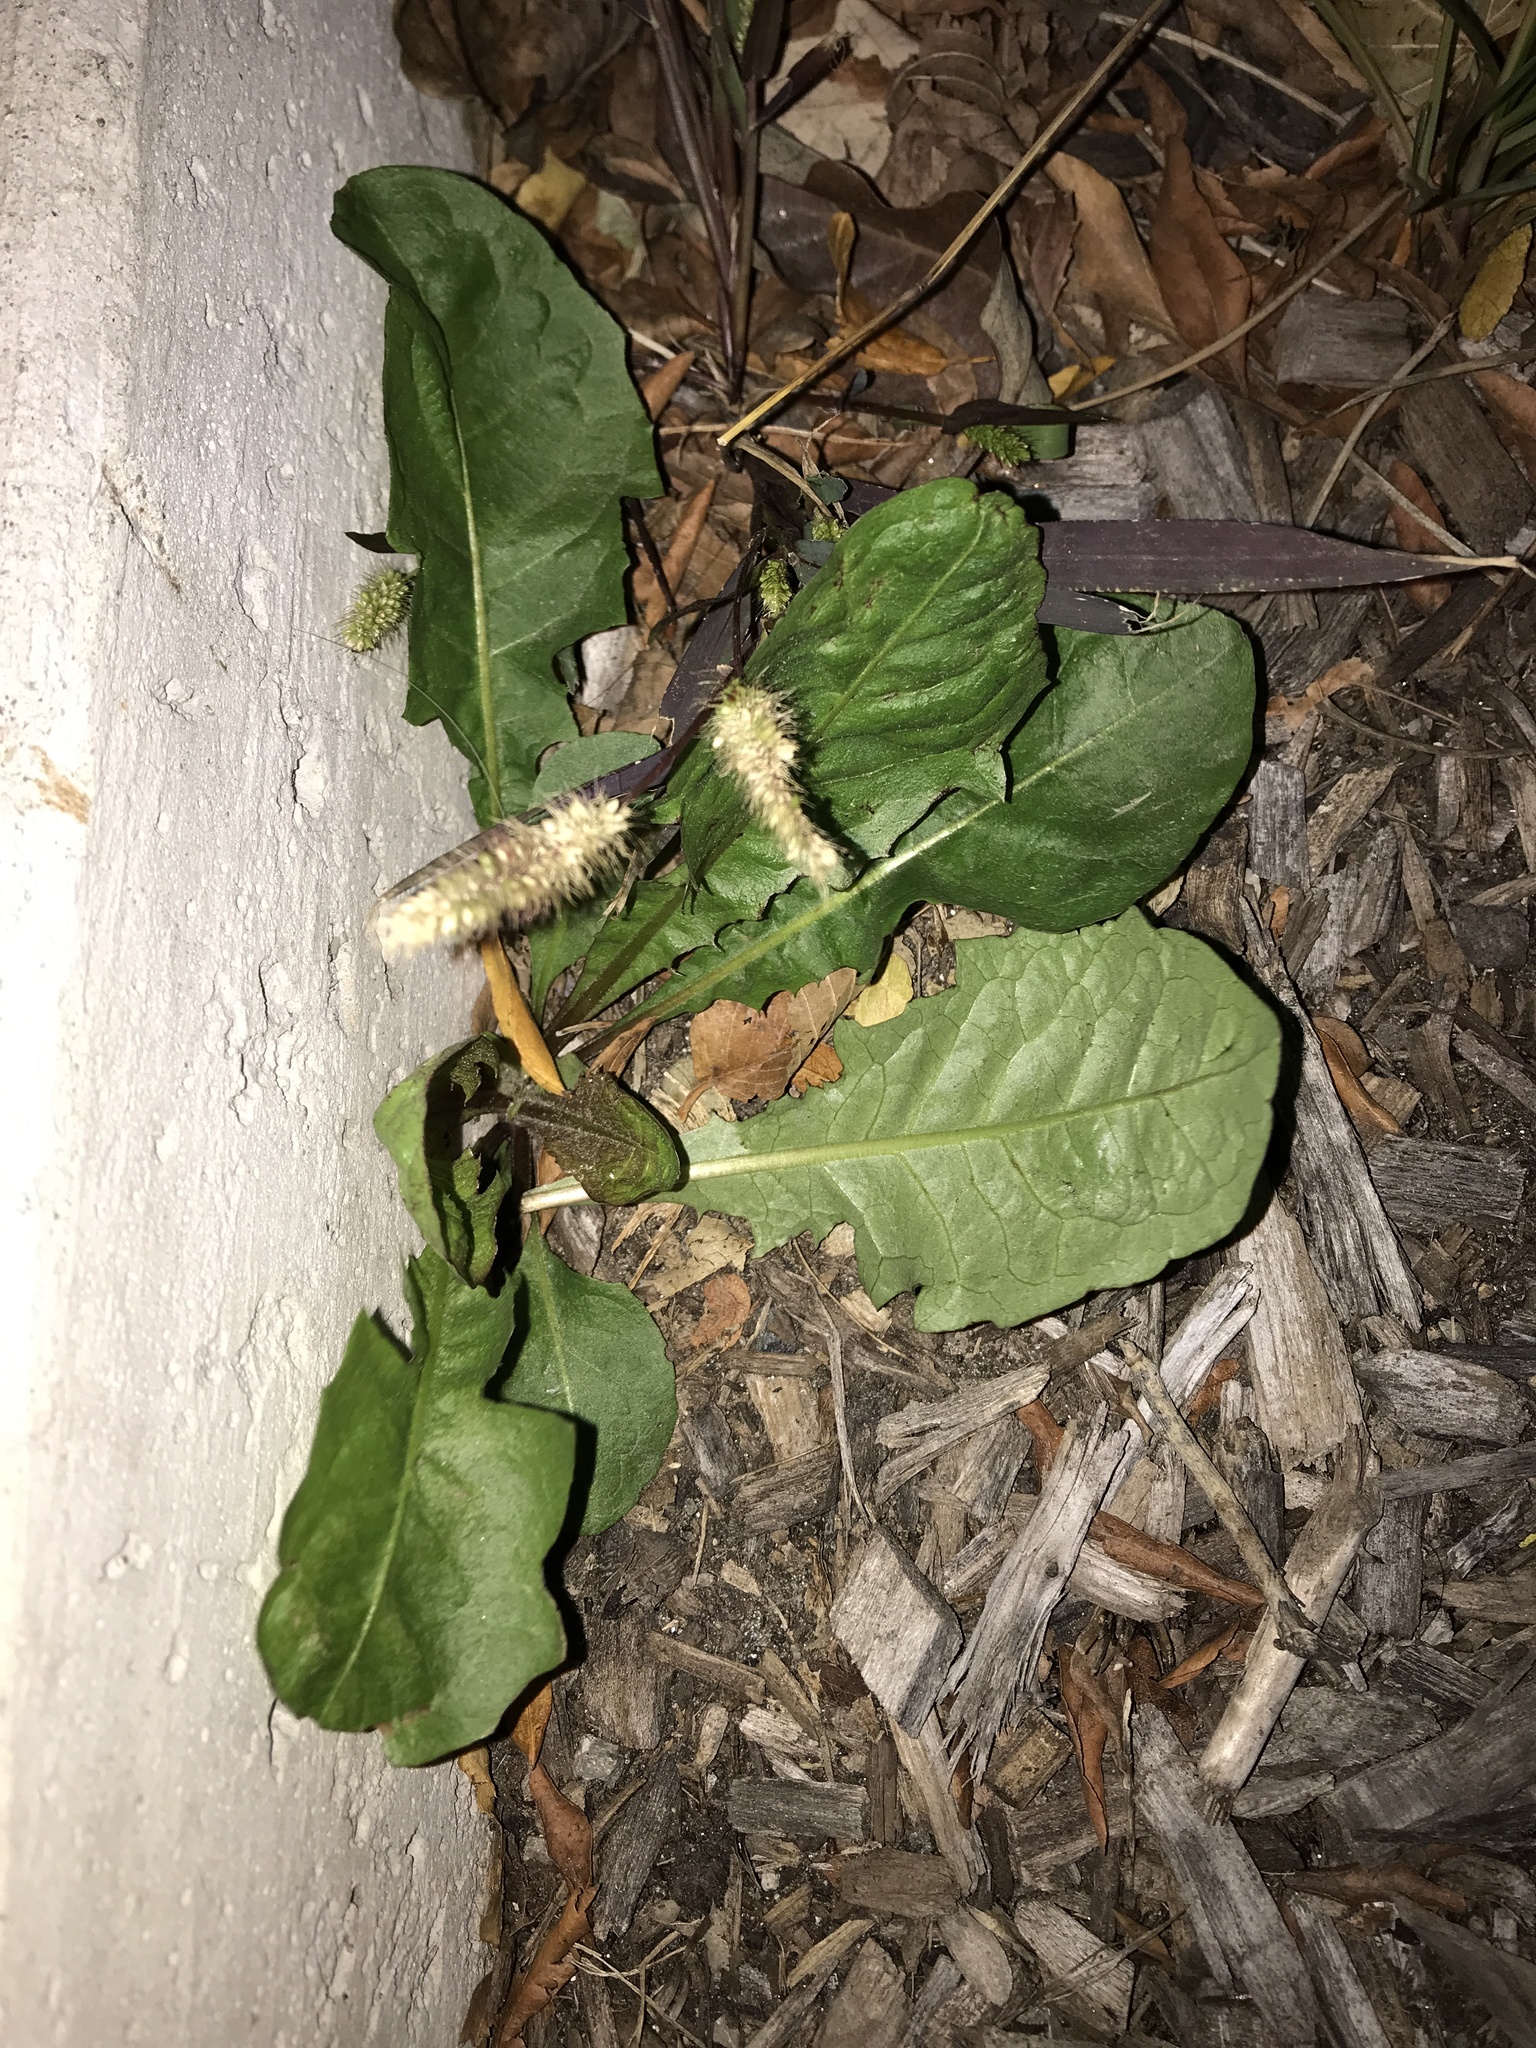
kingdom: Plantae
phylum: Tracheophyta
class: Magnoliopsida
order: Asterales
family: Asteraceae
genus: Taraxacum
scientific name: Taraxacum officinale
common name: Common dandelion
